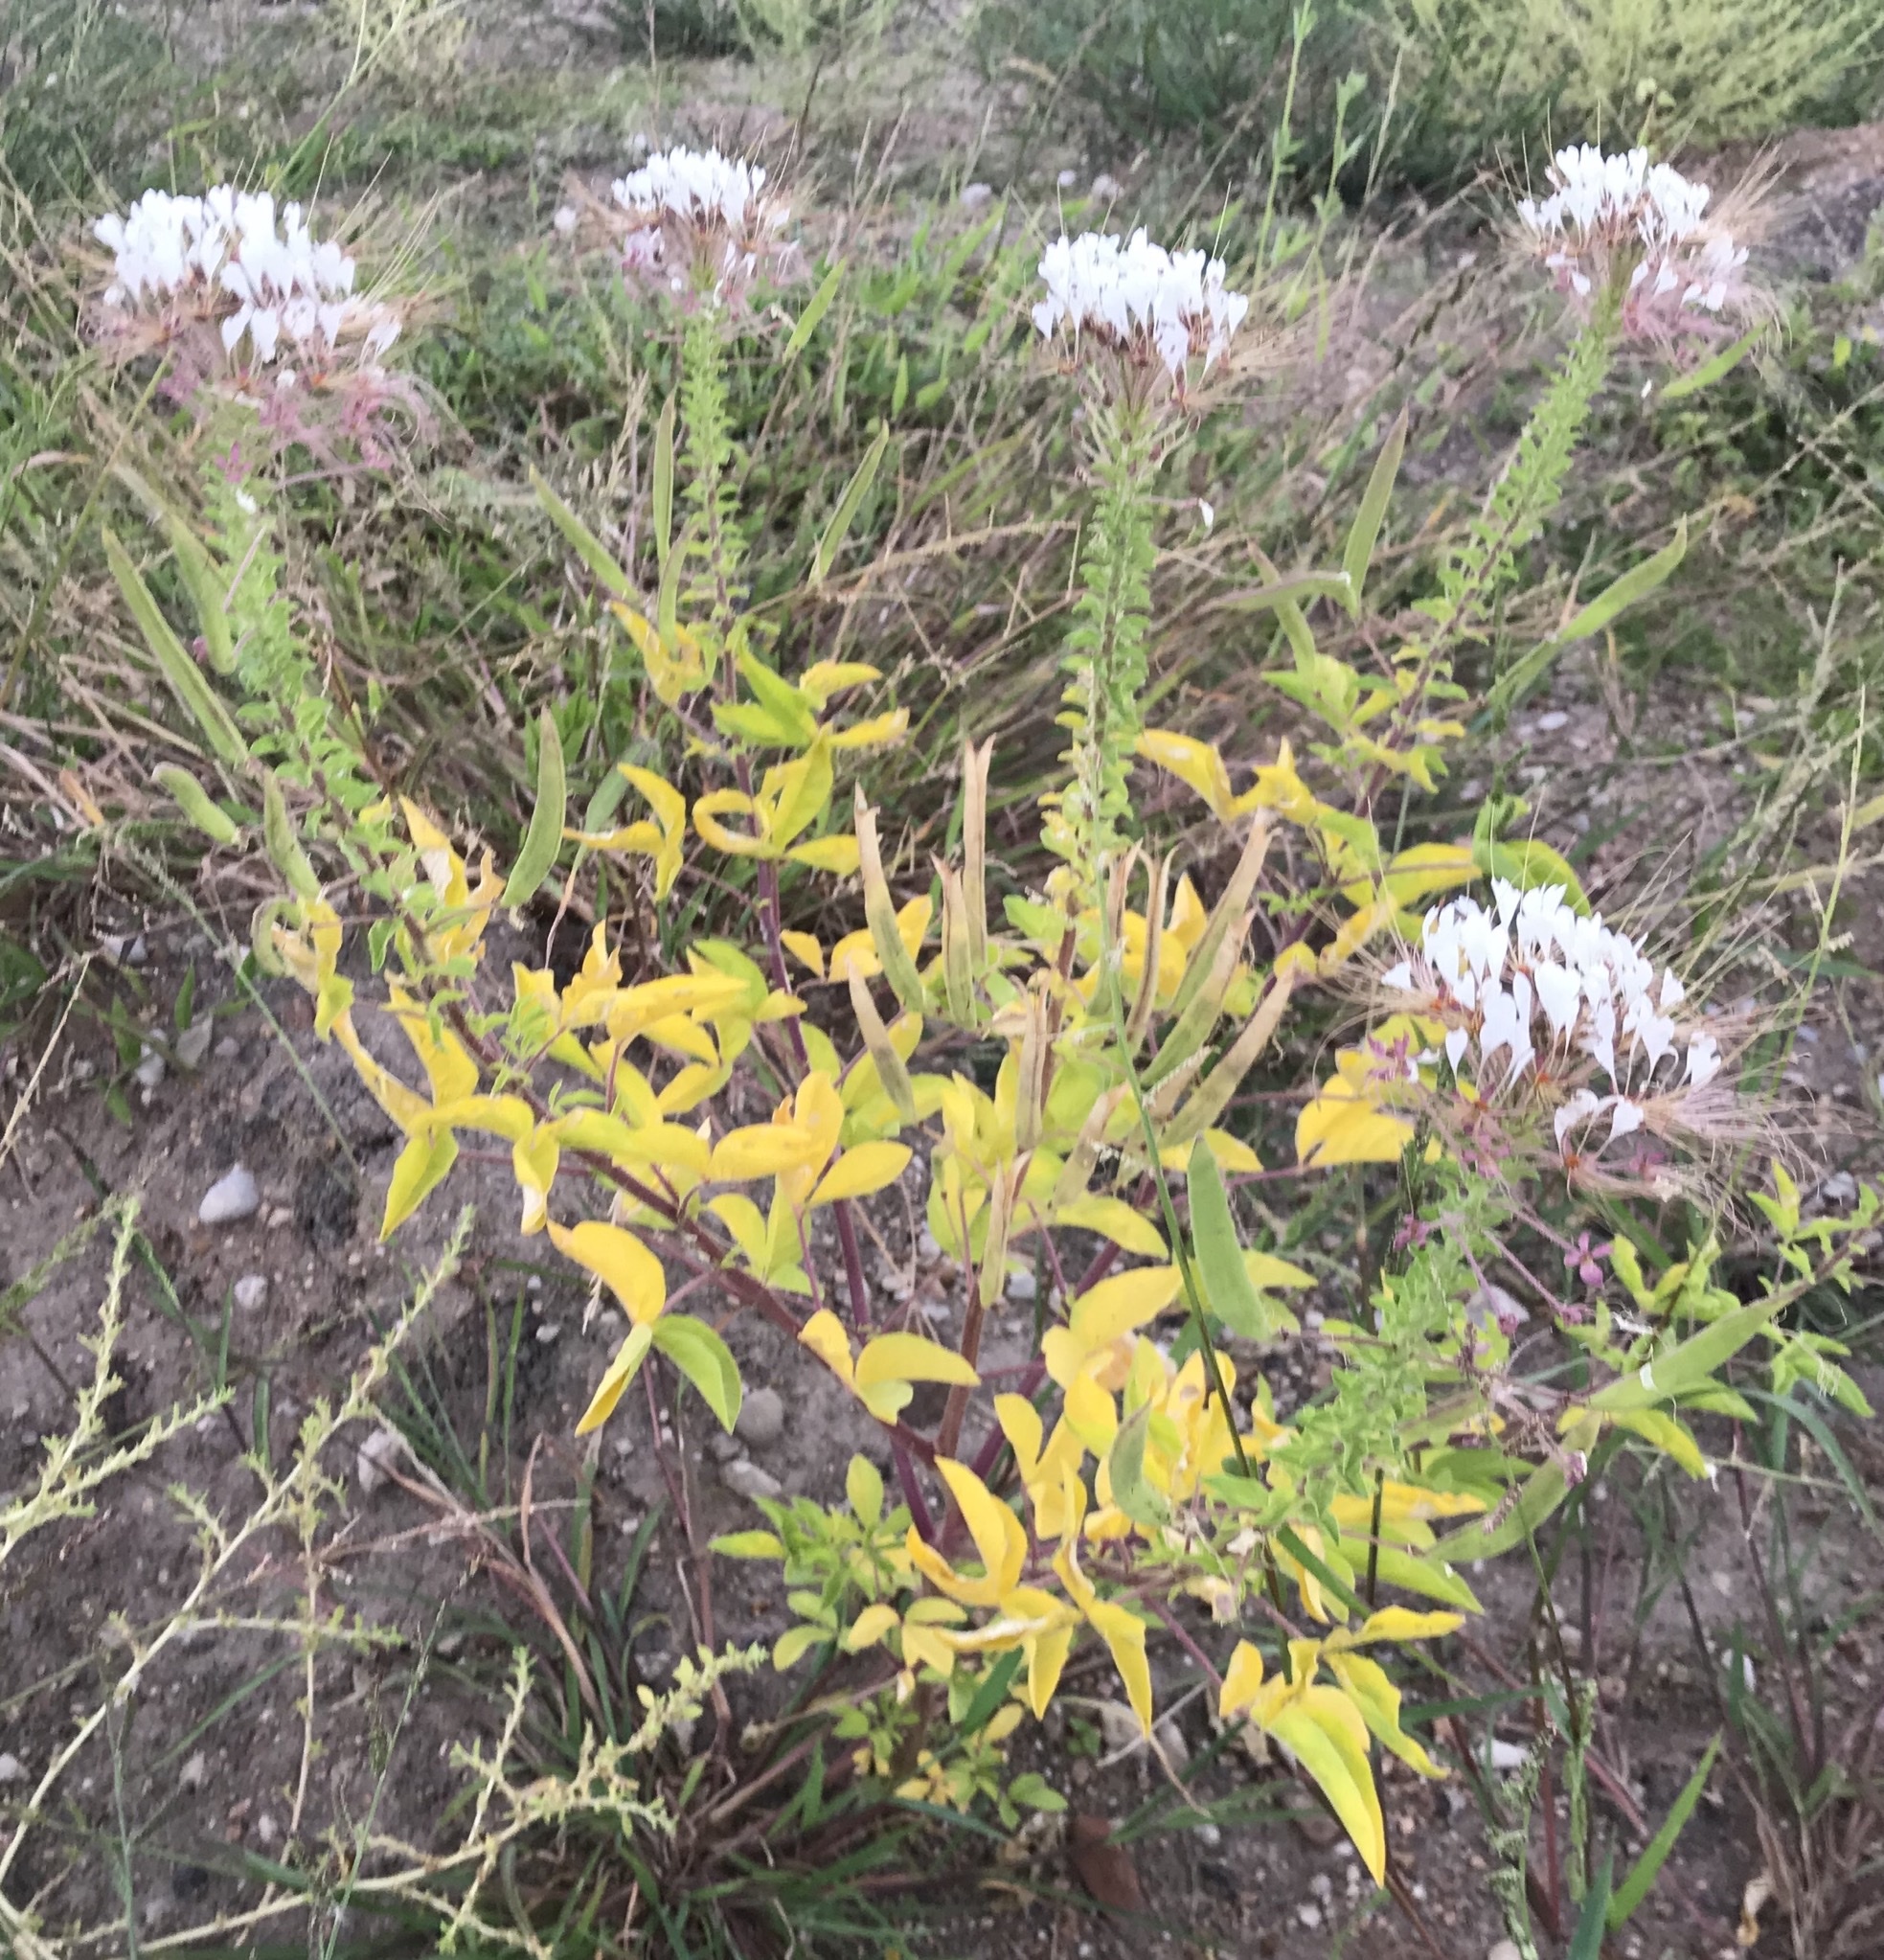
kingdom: Plantae
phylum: Tracheophyta
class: Magnoliopsida
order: Brassicales
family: Cleomaceae
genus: Polanisia
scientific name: Polanisia dodecandra
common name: Clammyweed
